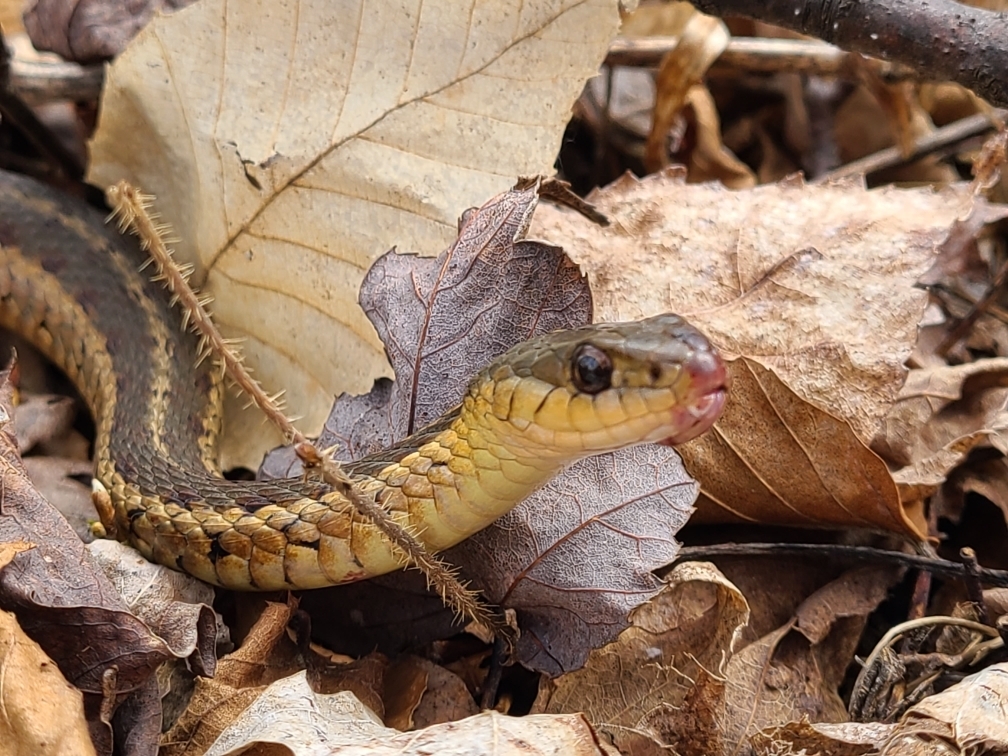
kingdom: Animalia
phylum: Chordata
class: Squamata
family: Colubridae
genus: Thamnophis
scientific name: Thamnophis sirtalis
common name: Common garter snake
